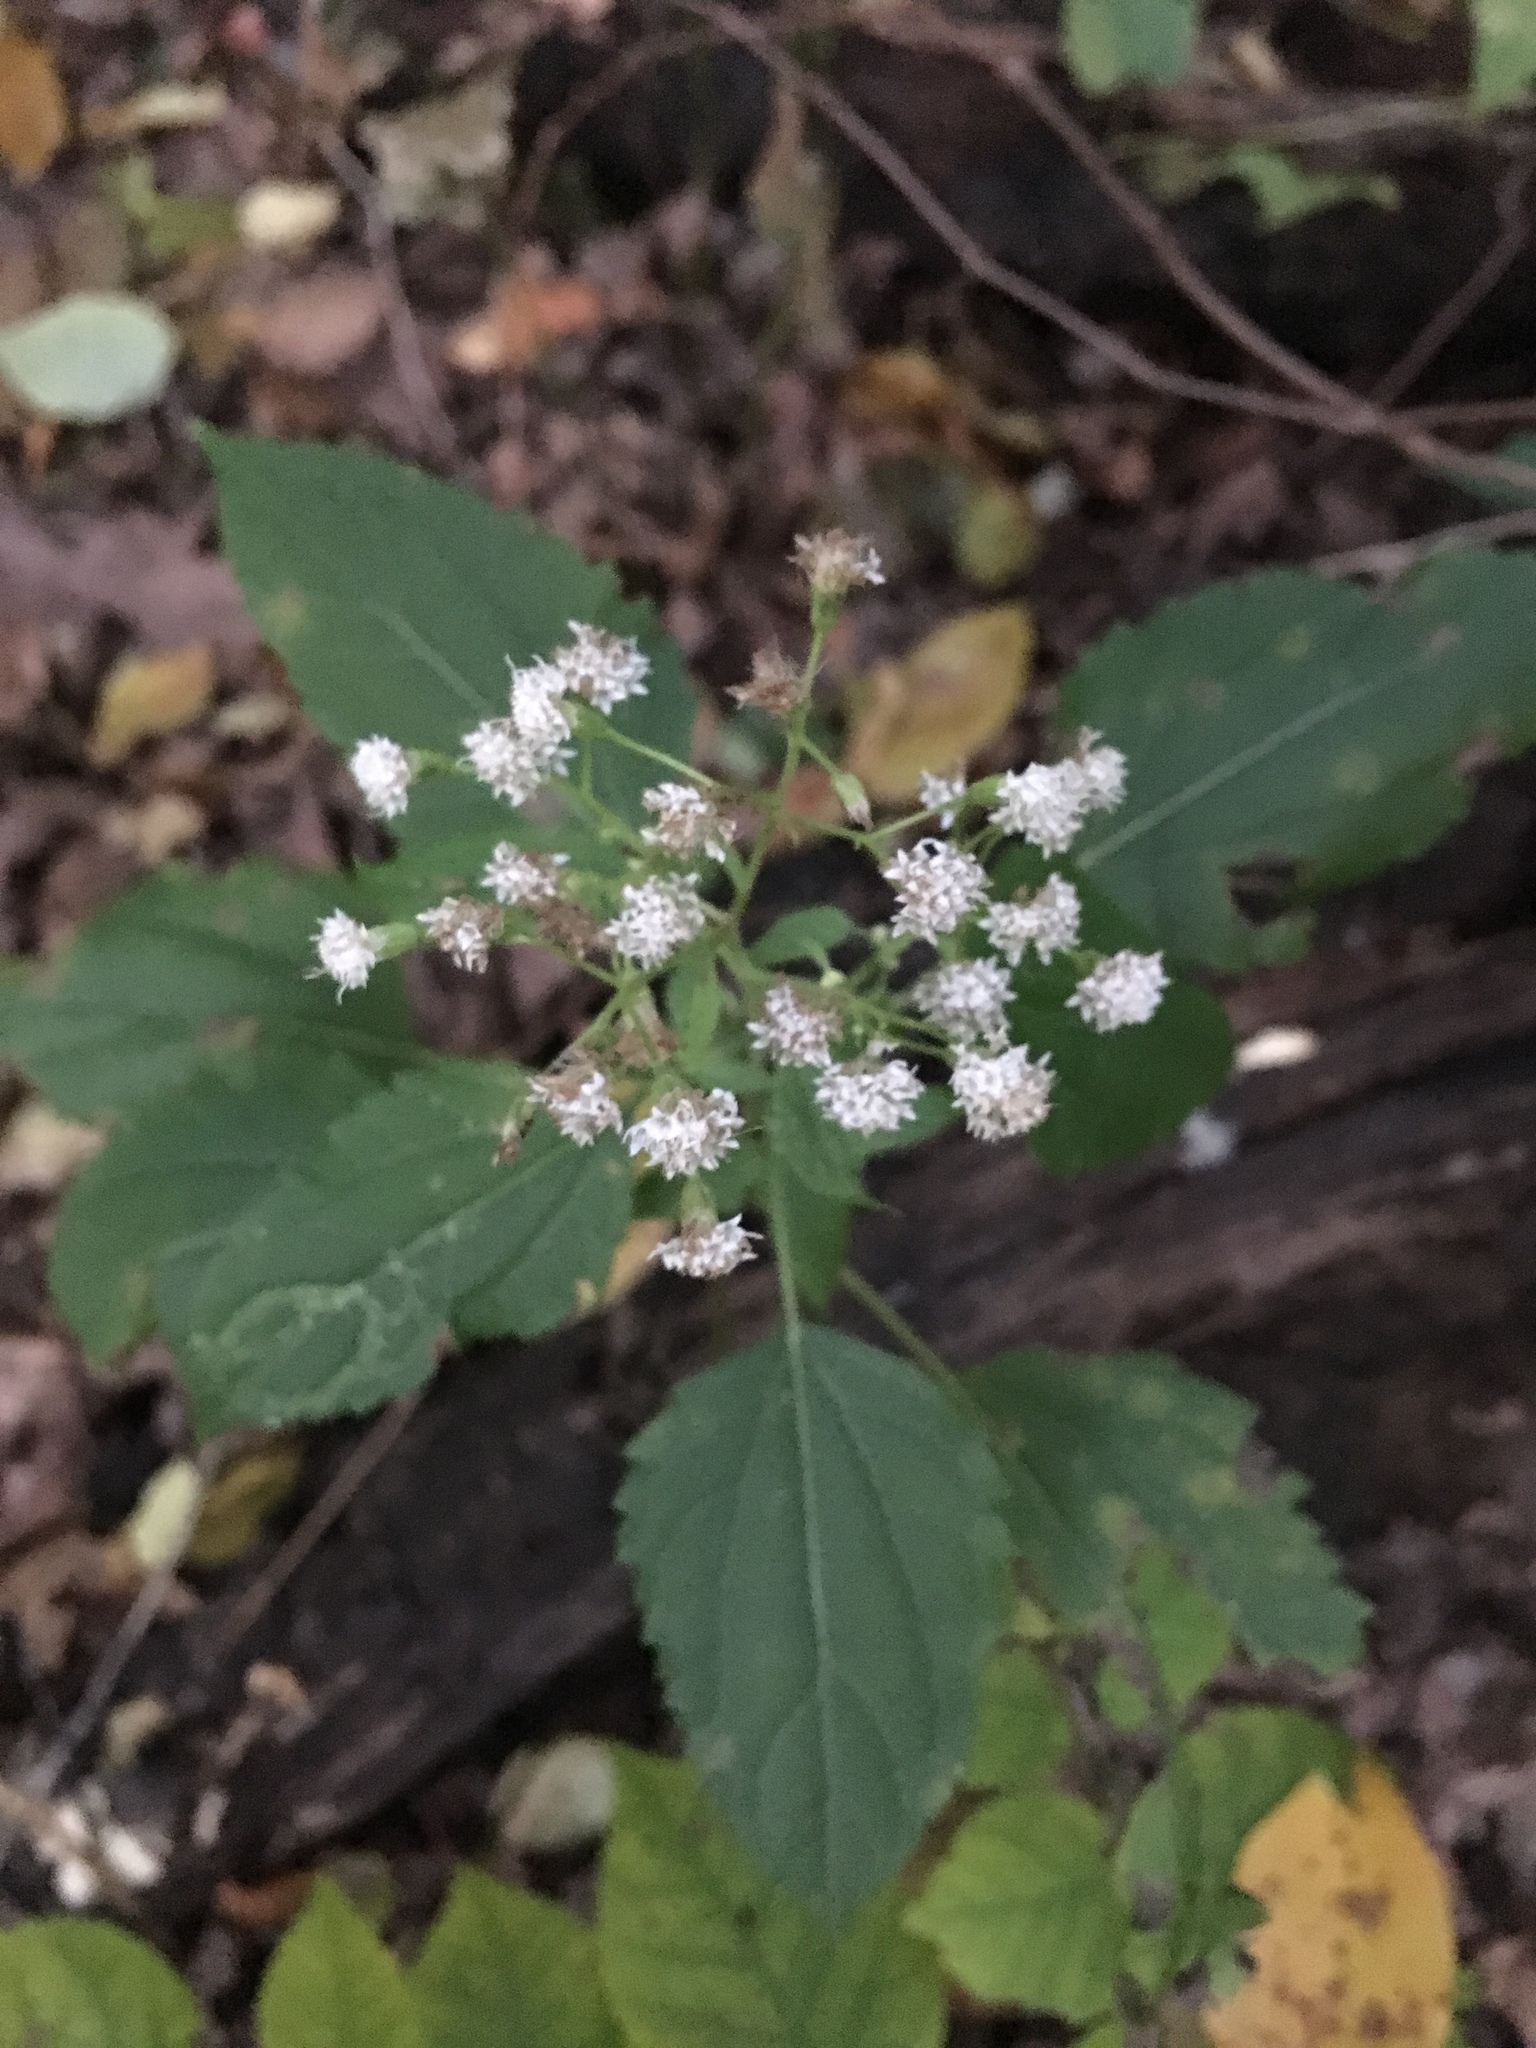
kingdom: Plantae
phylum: Tracheophyta
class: Magnoliopsida
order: Asterales
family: Asteraceae
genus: Ageratina
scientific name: Ageratina altissima
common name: White snakeroot
